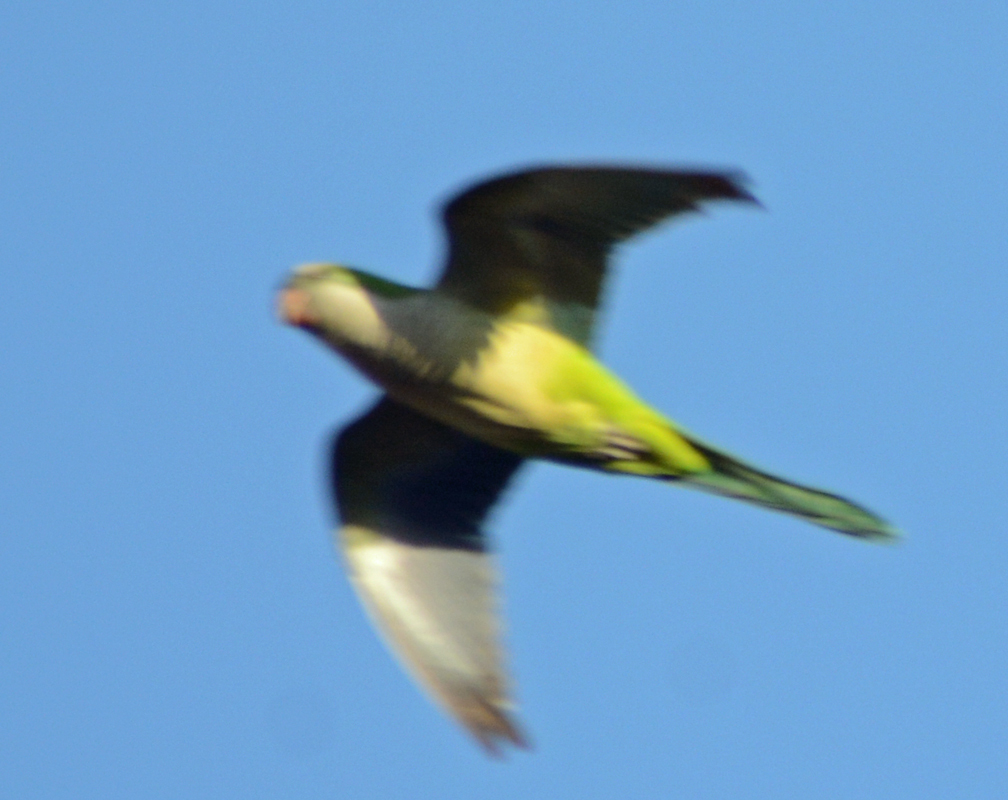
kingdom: Animalia
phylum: Chordata
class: Aves
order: Psittaciformes
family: Psittacidae
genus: Myiopsitta
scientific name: Myiopsitta monachus
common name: Monk parakeet
